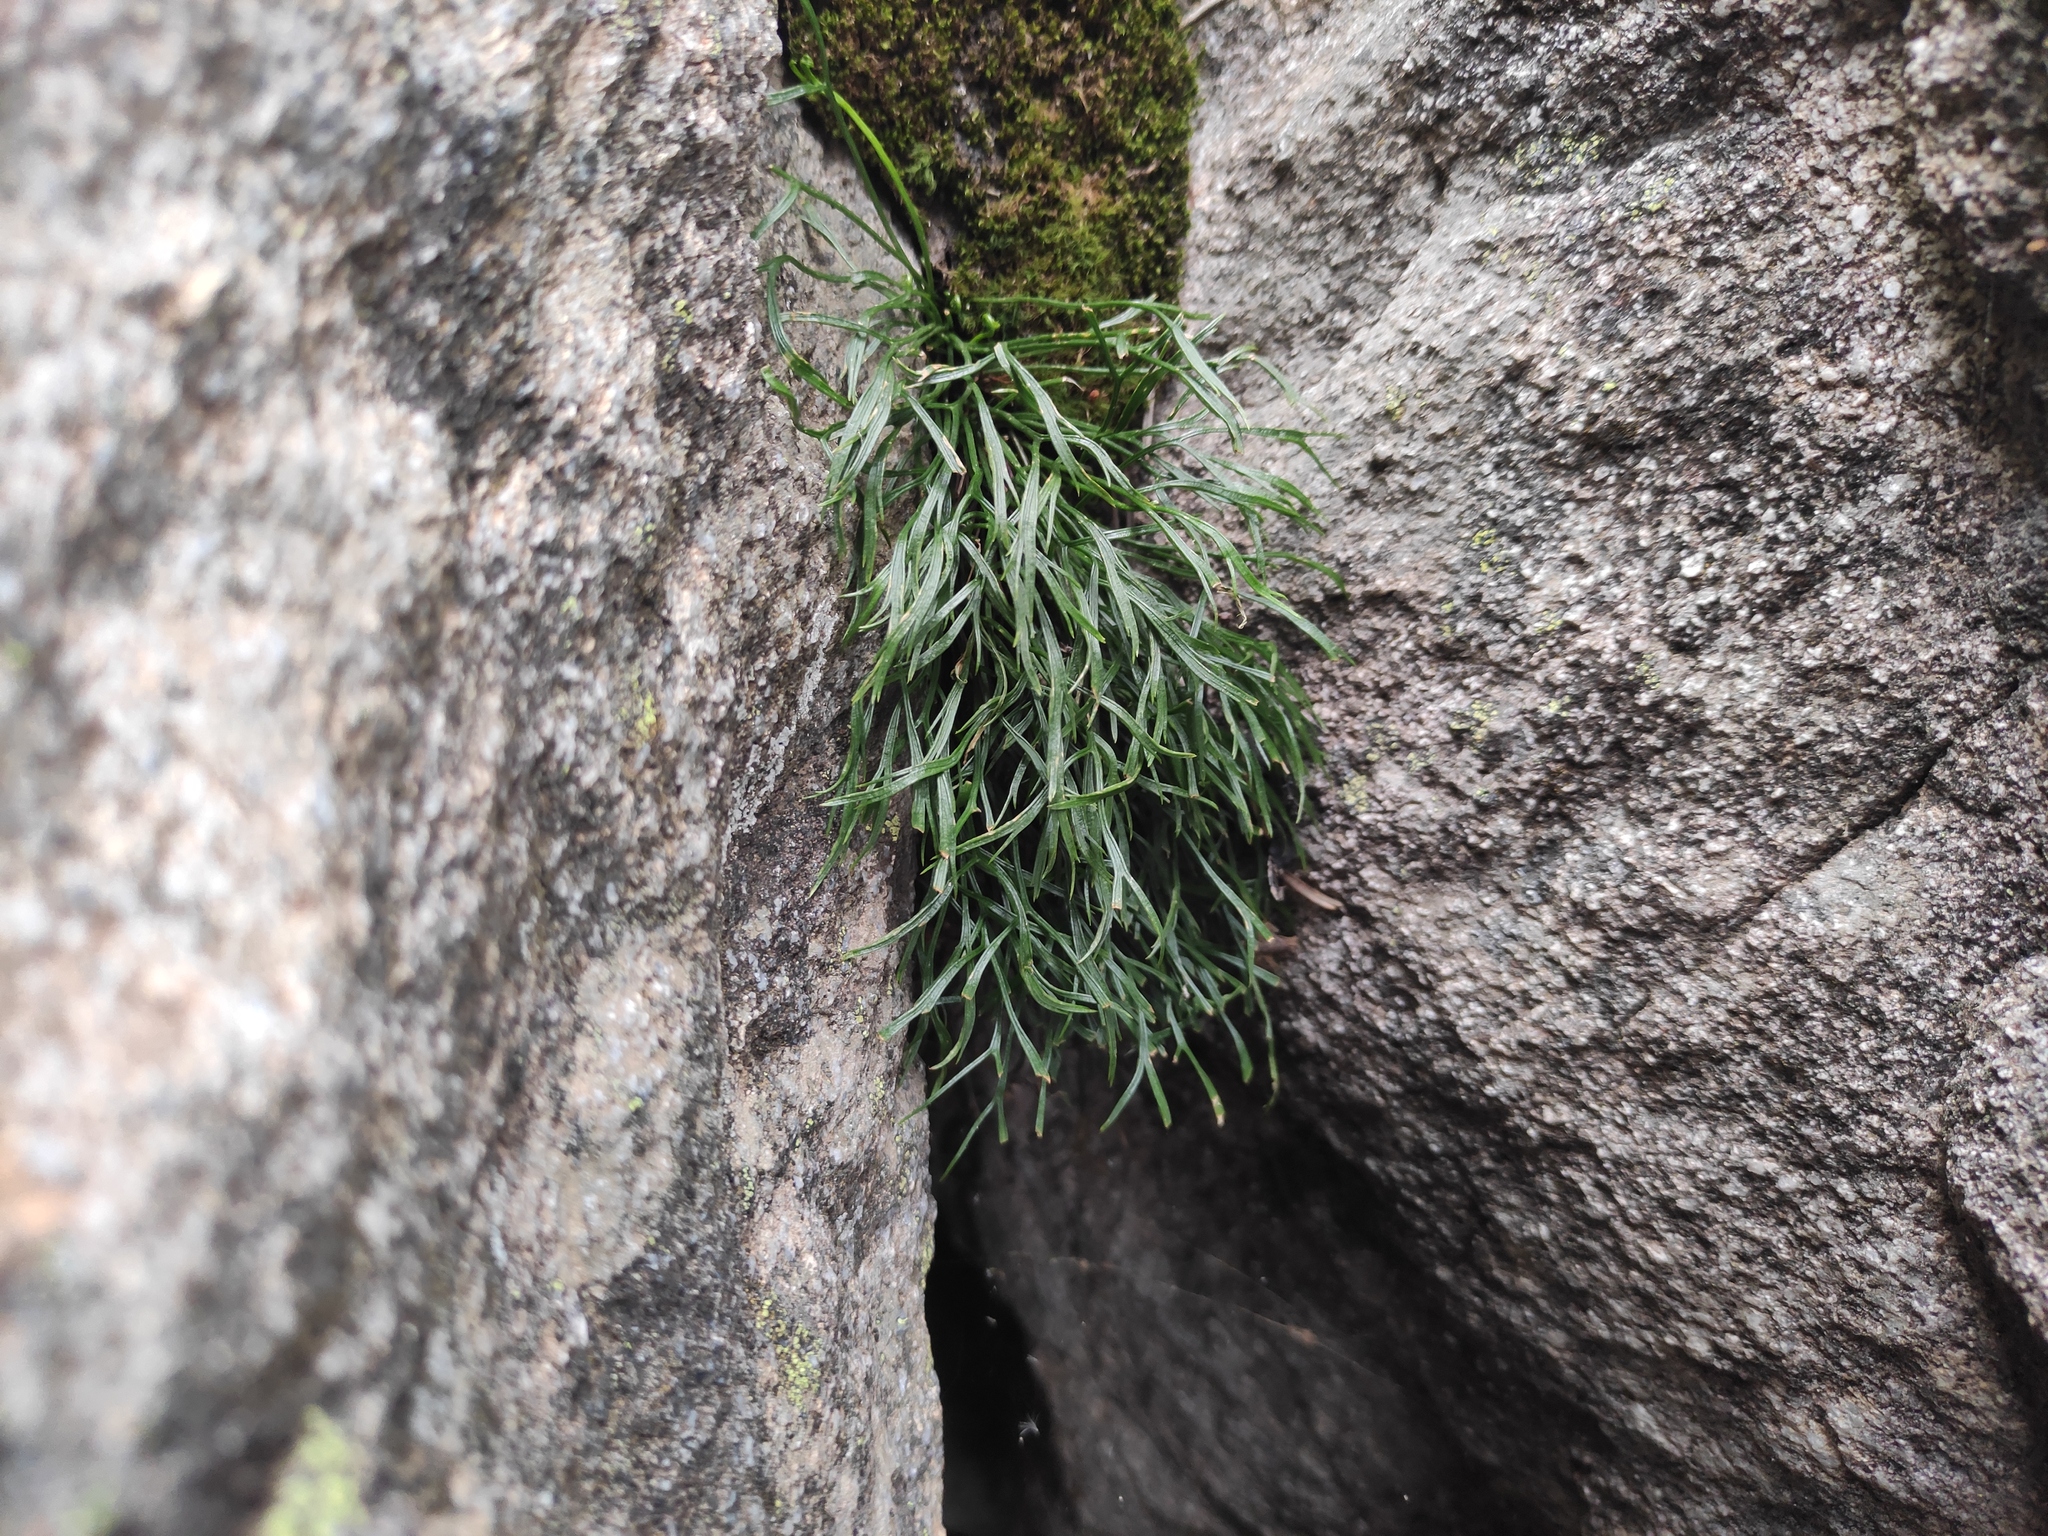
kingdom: Plantae
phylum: Tracheophyta
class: Polypodiopsida
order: Polypodiales
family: Aspleniaceae
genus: Asplenium
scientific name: Asplenium septentrionale
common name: Forked spleenwort
